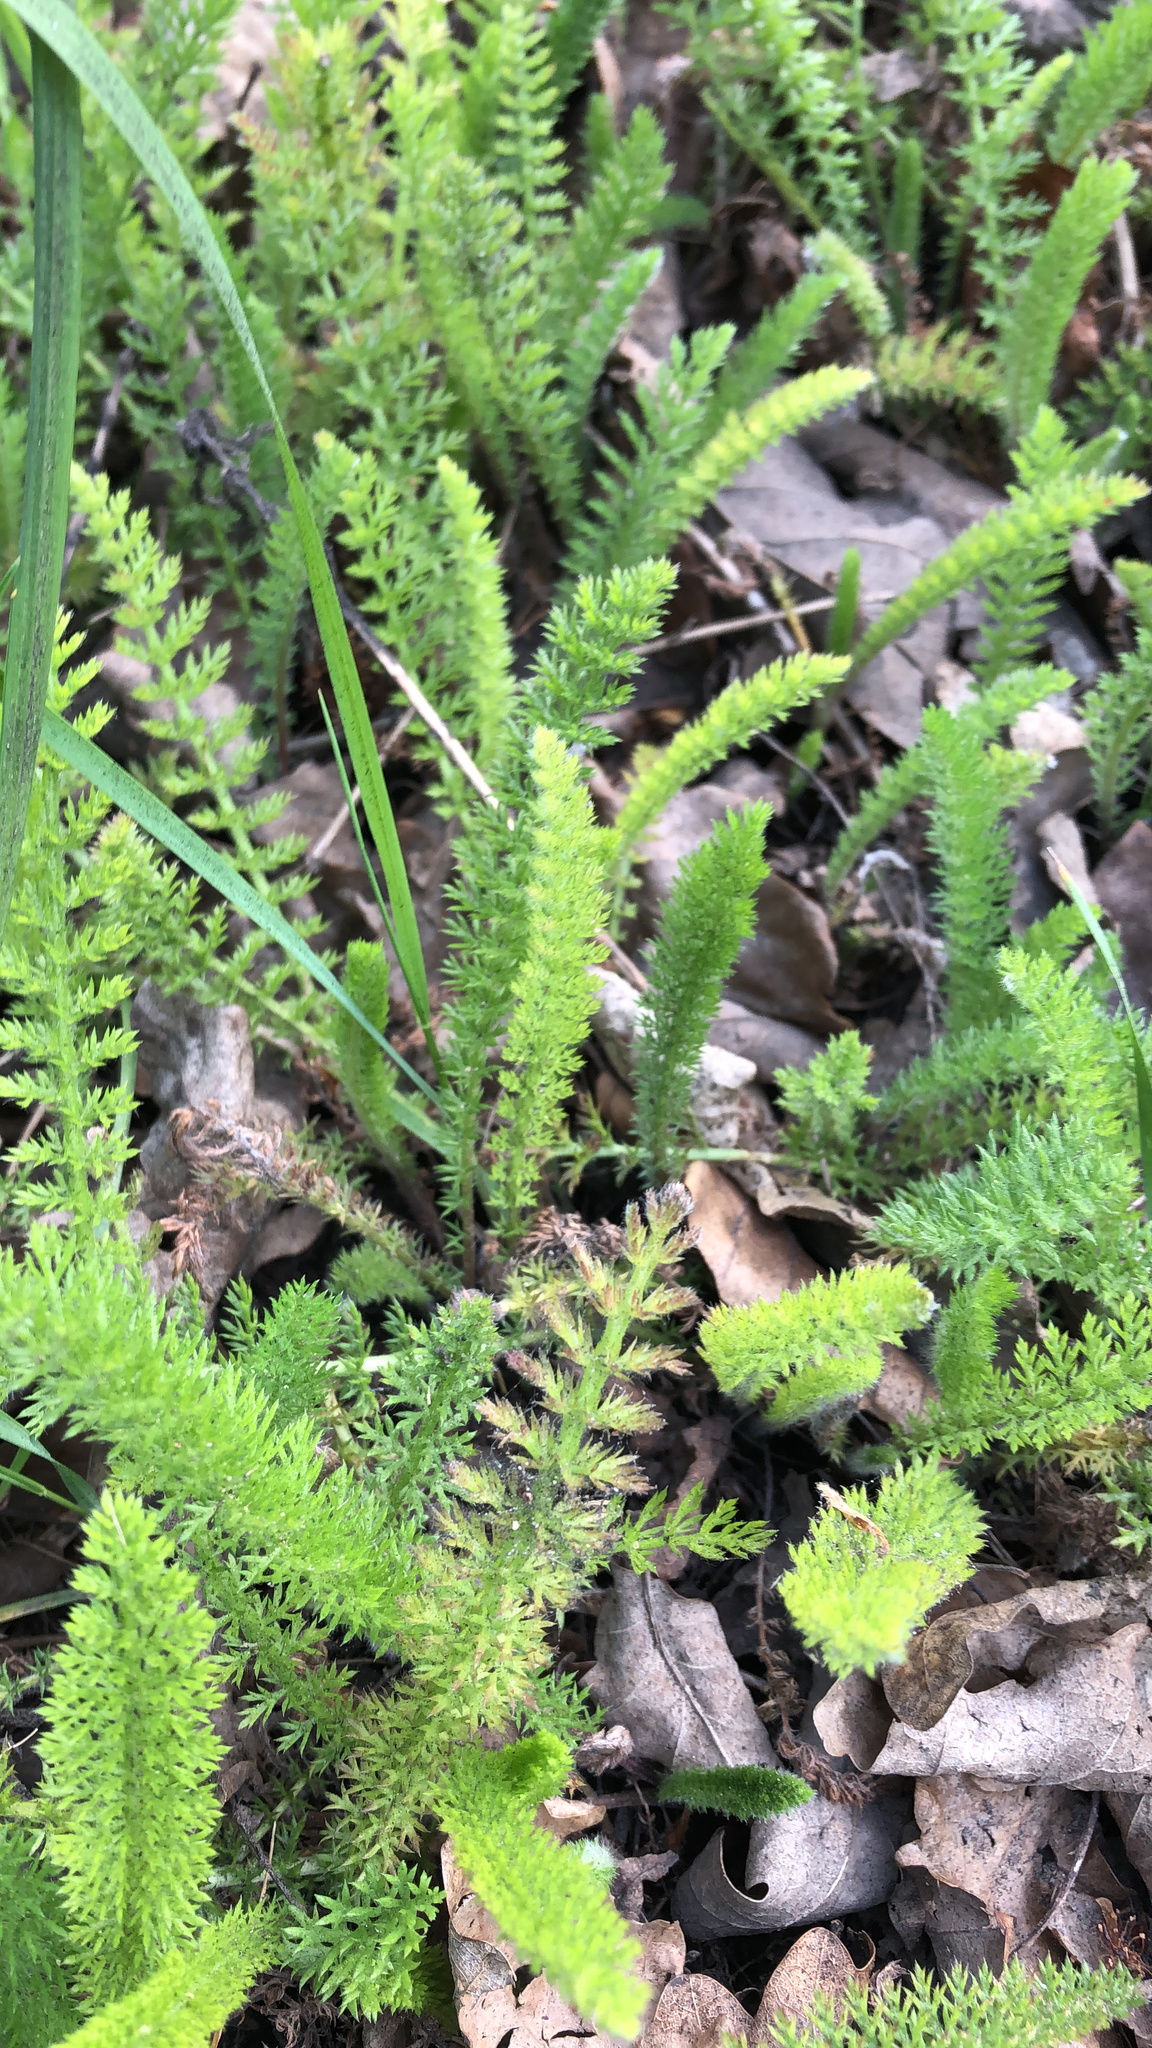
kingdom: Plantae
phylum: Tracheophyta
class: Magnoliopsida
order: Asterales
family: Asteraceae
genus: Achillea
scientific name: Achillea millefolium
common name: Yarrow
